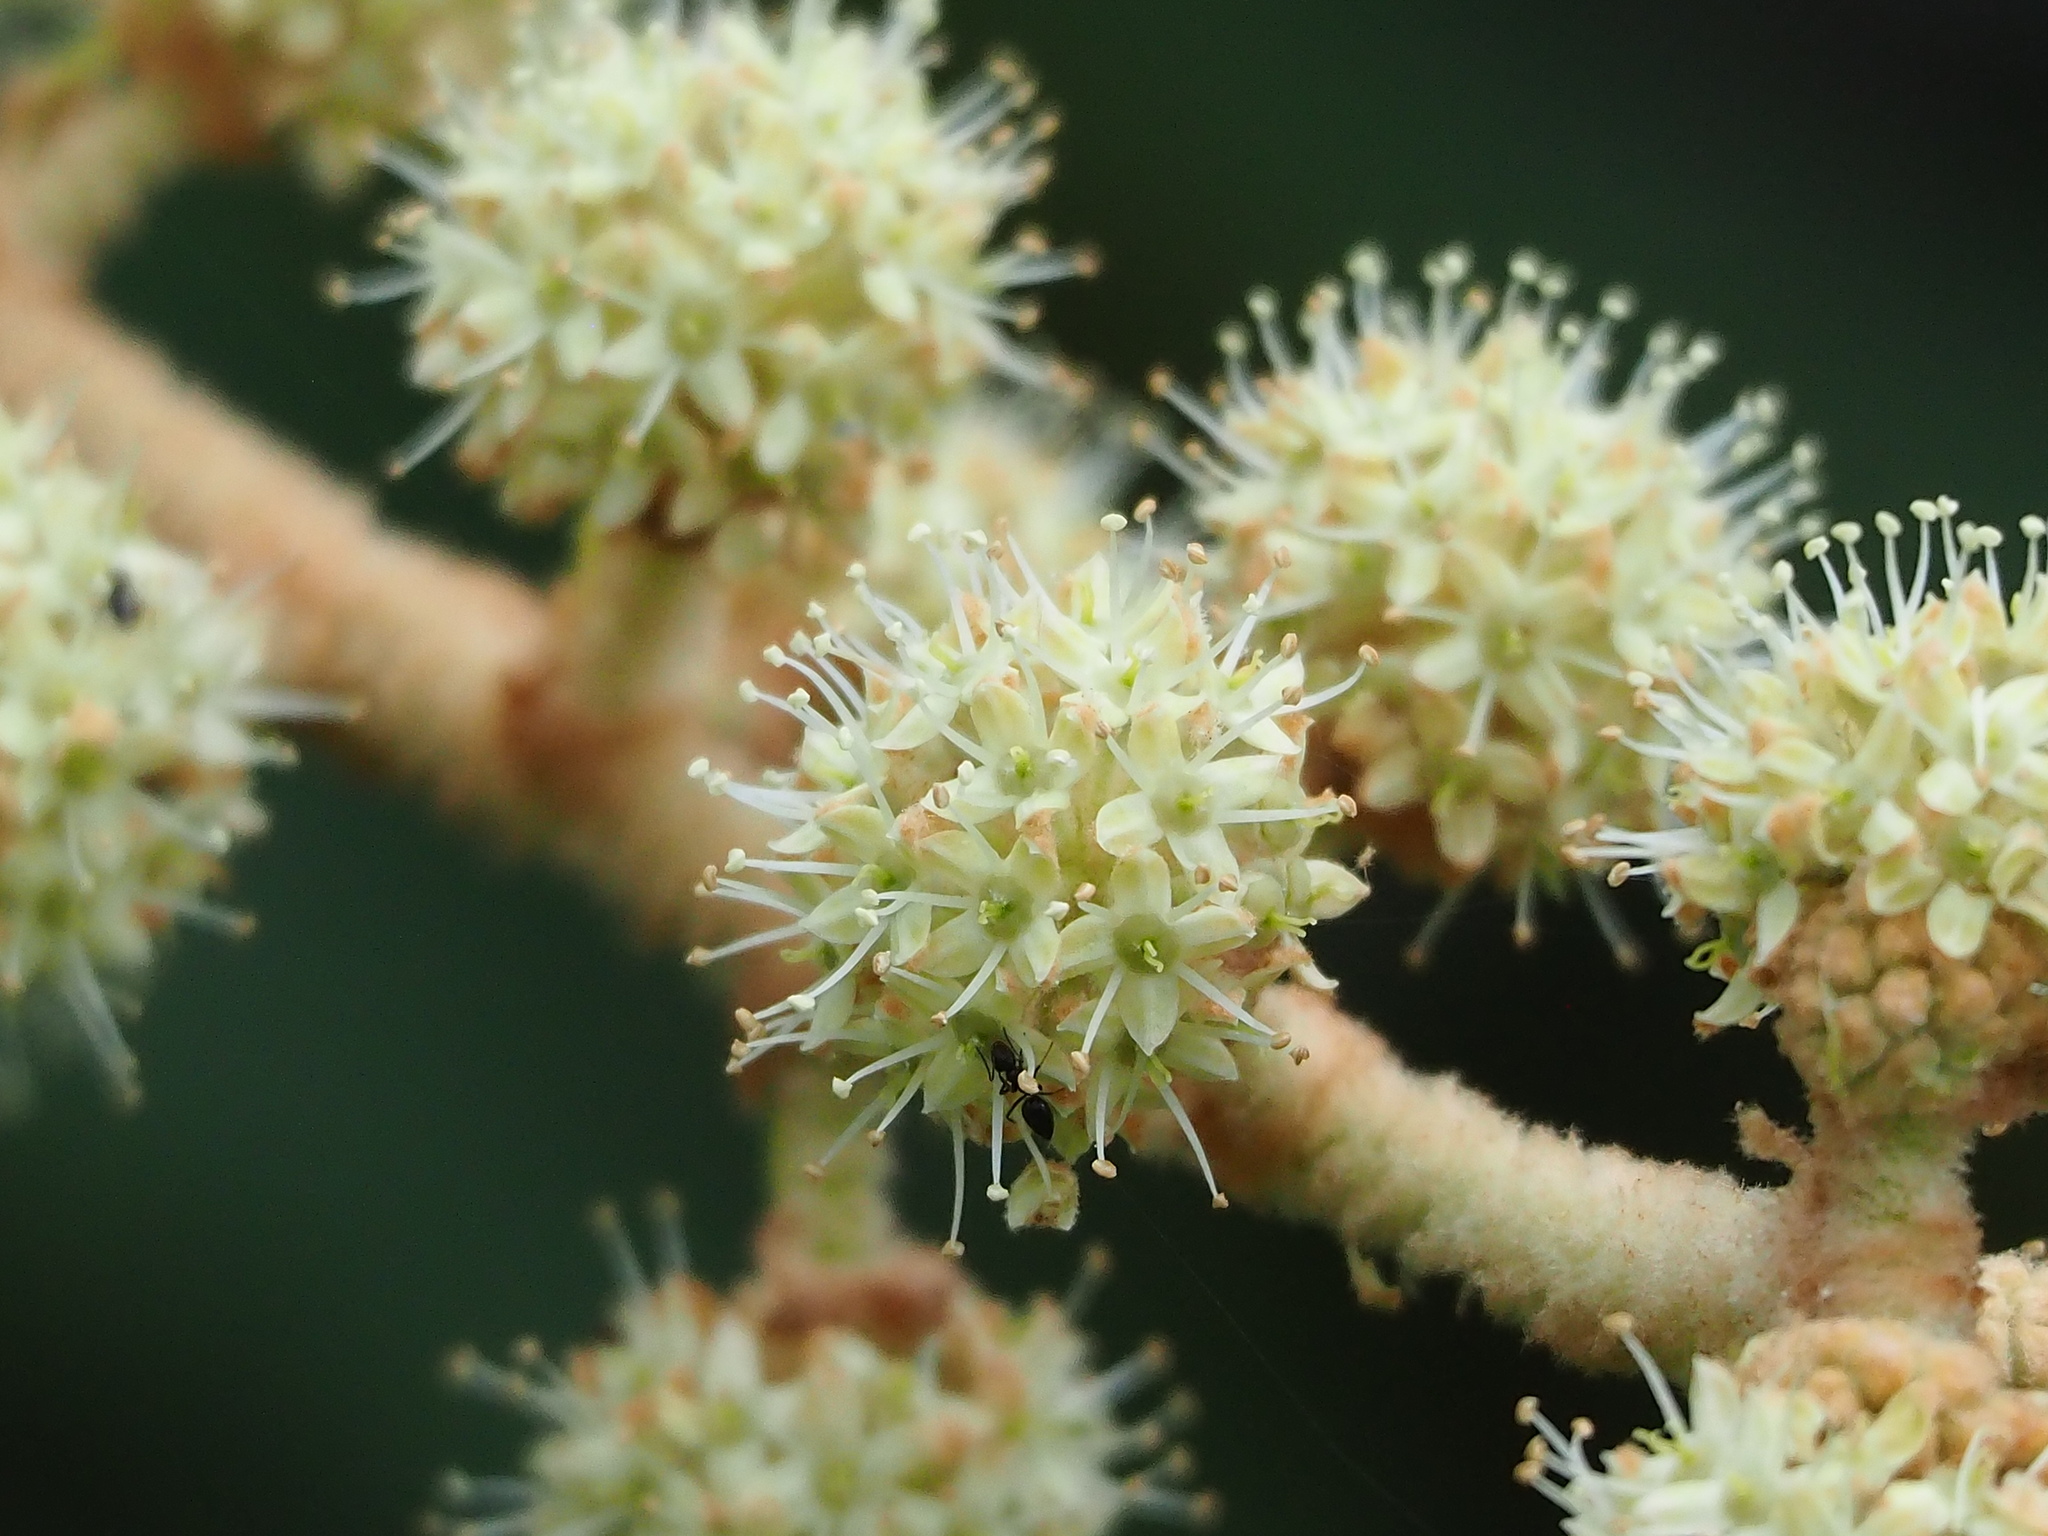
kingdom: Plantae
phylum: Tracheophyta
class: Magnoliopsida
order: Apiales
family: Araliaceae
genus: Tetrapanax
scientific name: Tetrapanax papyrifer
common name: Rice-paper plant
